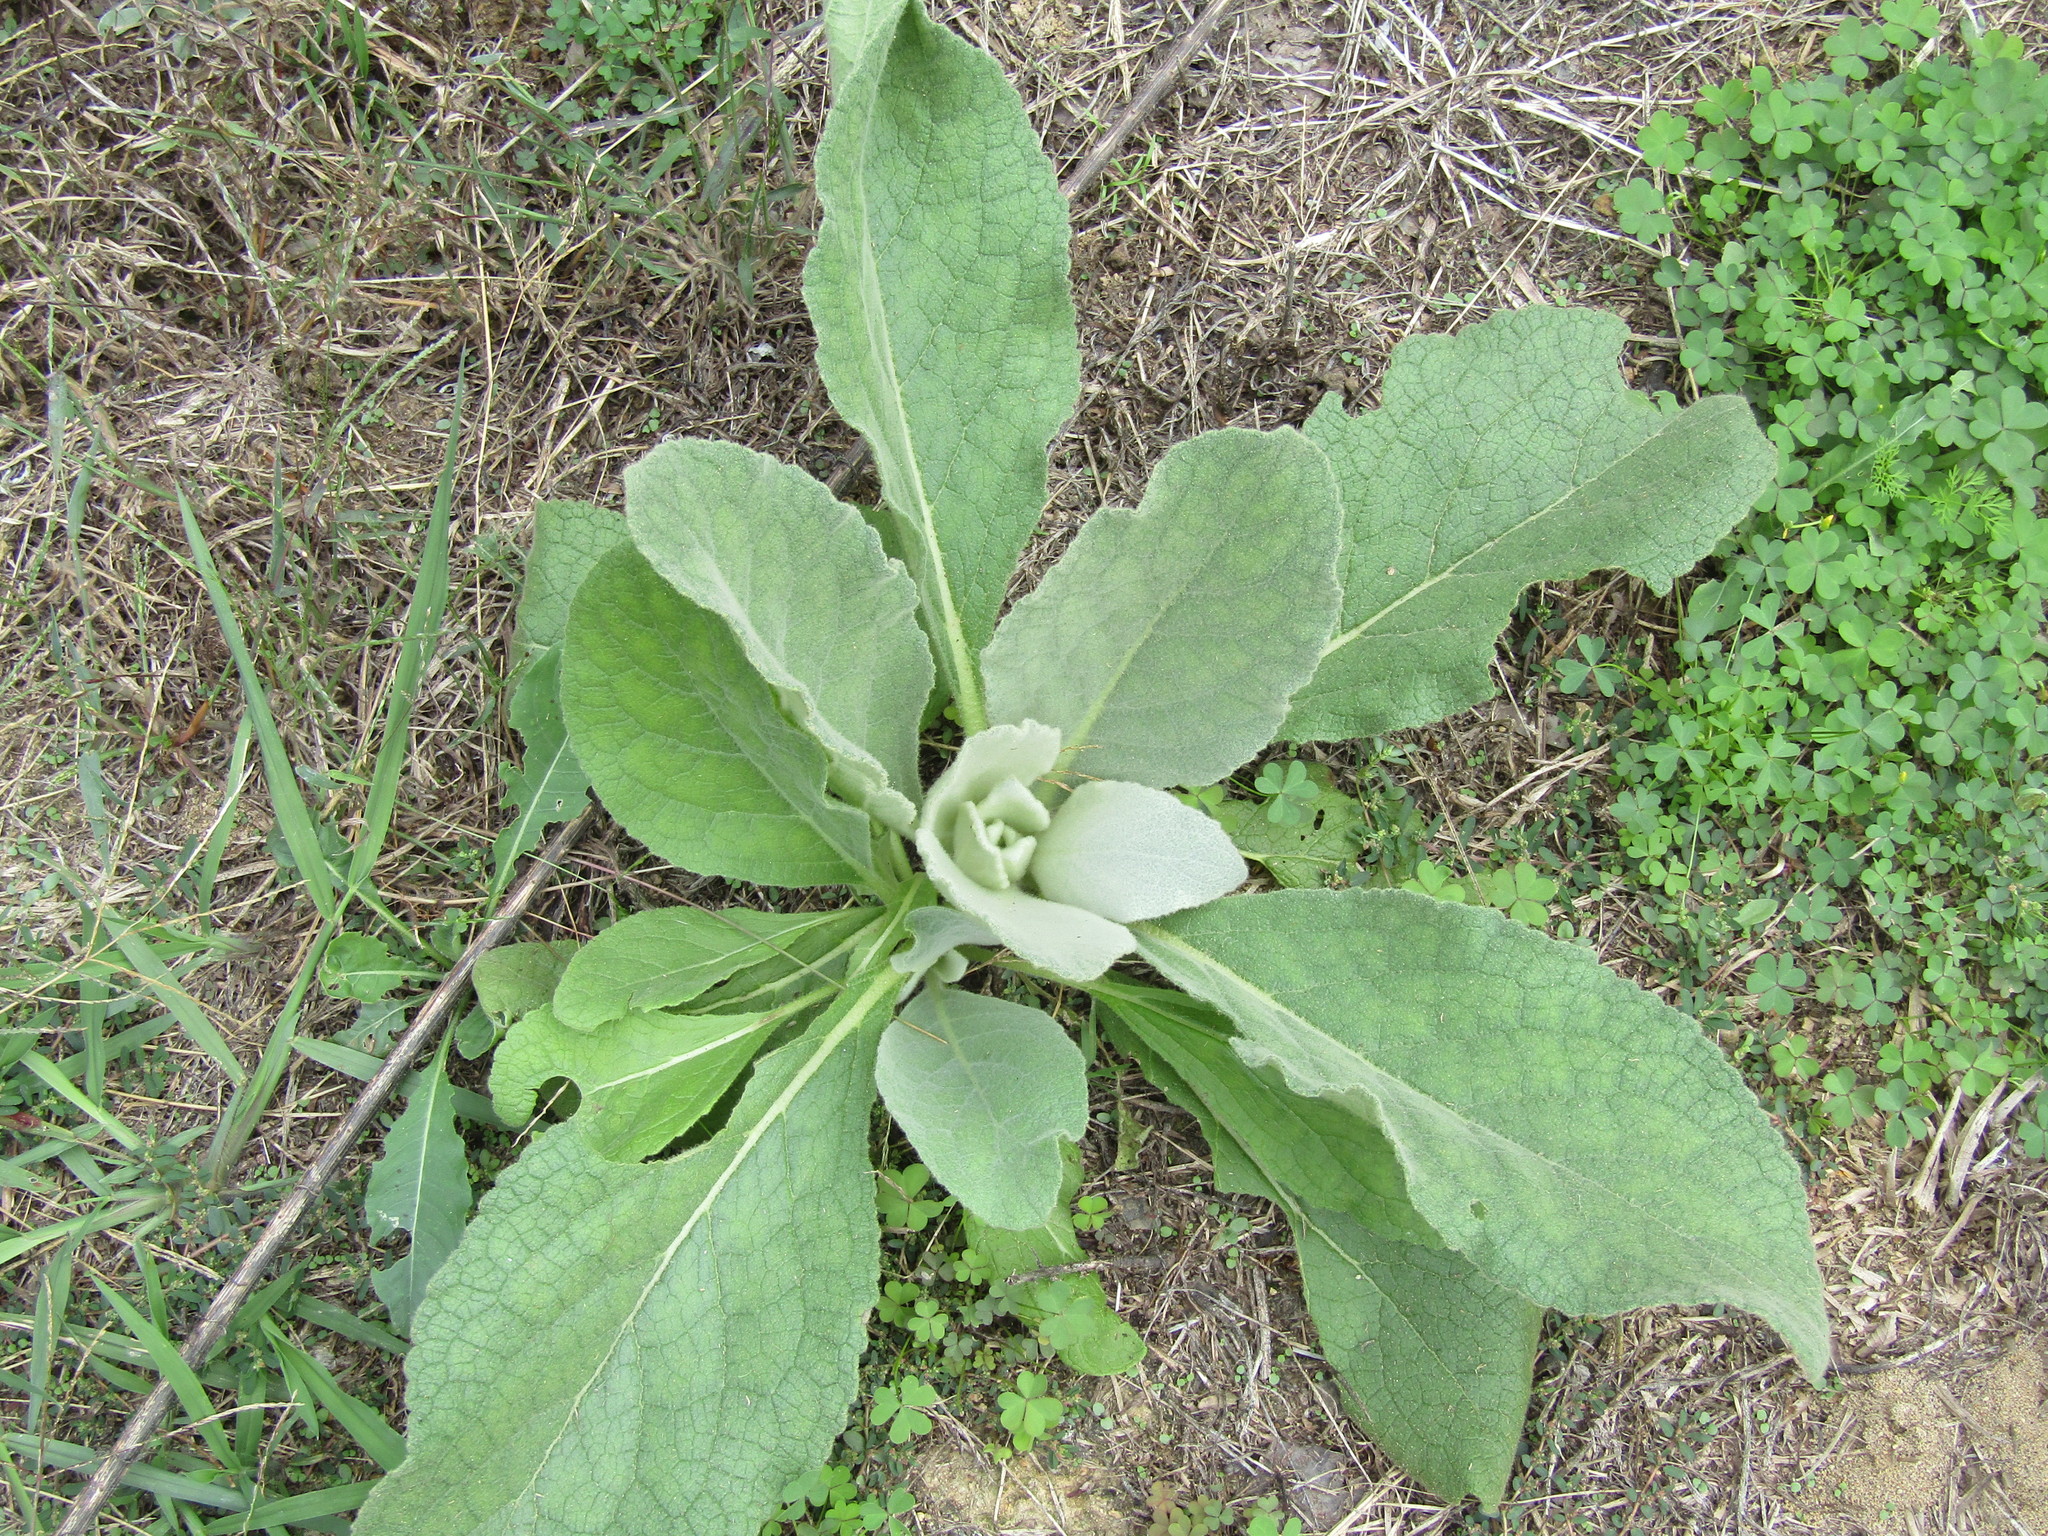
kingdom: Plantae
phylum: Tracheophyta
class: Magnoliopsida
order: Lamiales
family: Scrophulariaceae
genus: Verbascum
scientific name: Verbascum thapsus
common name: Common mullein
